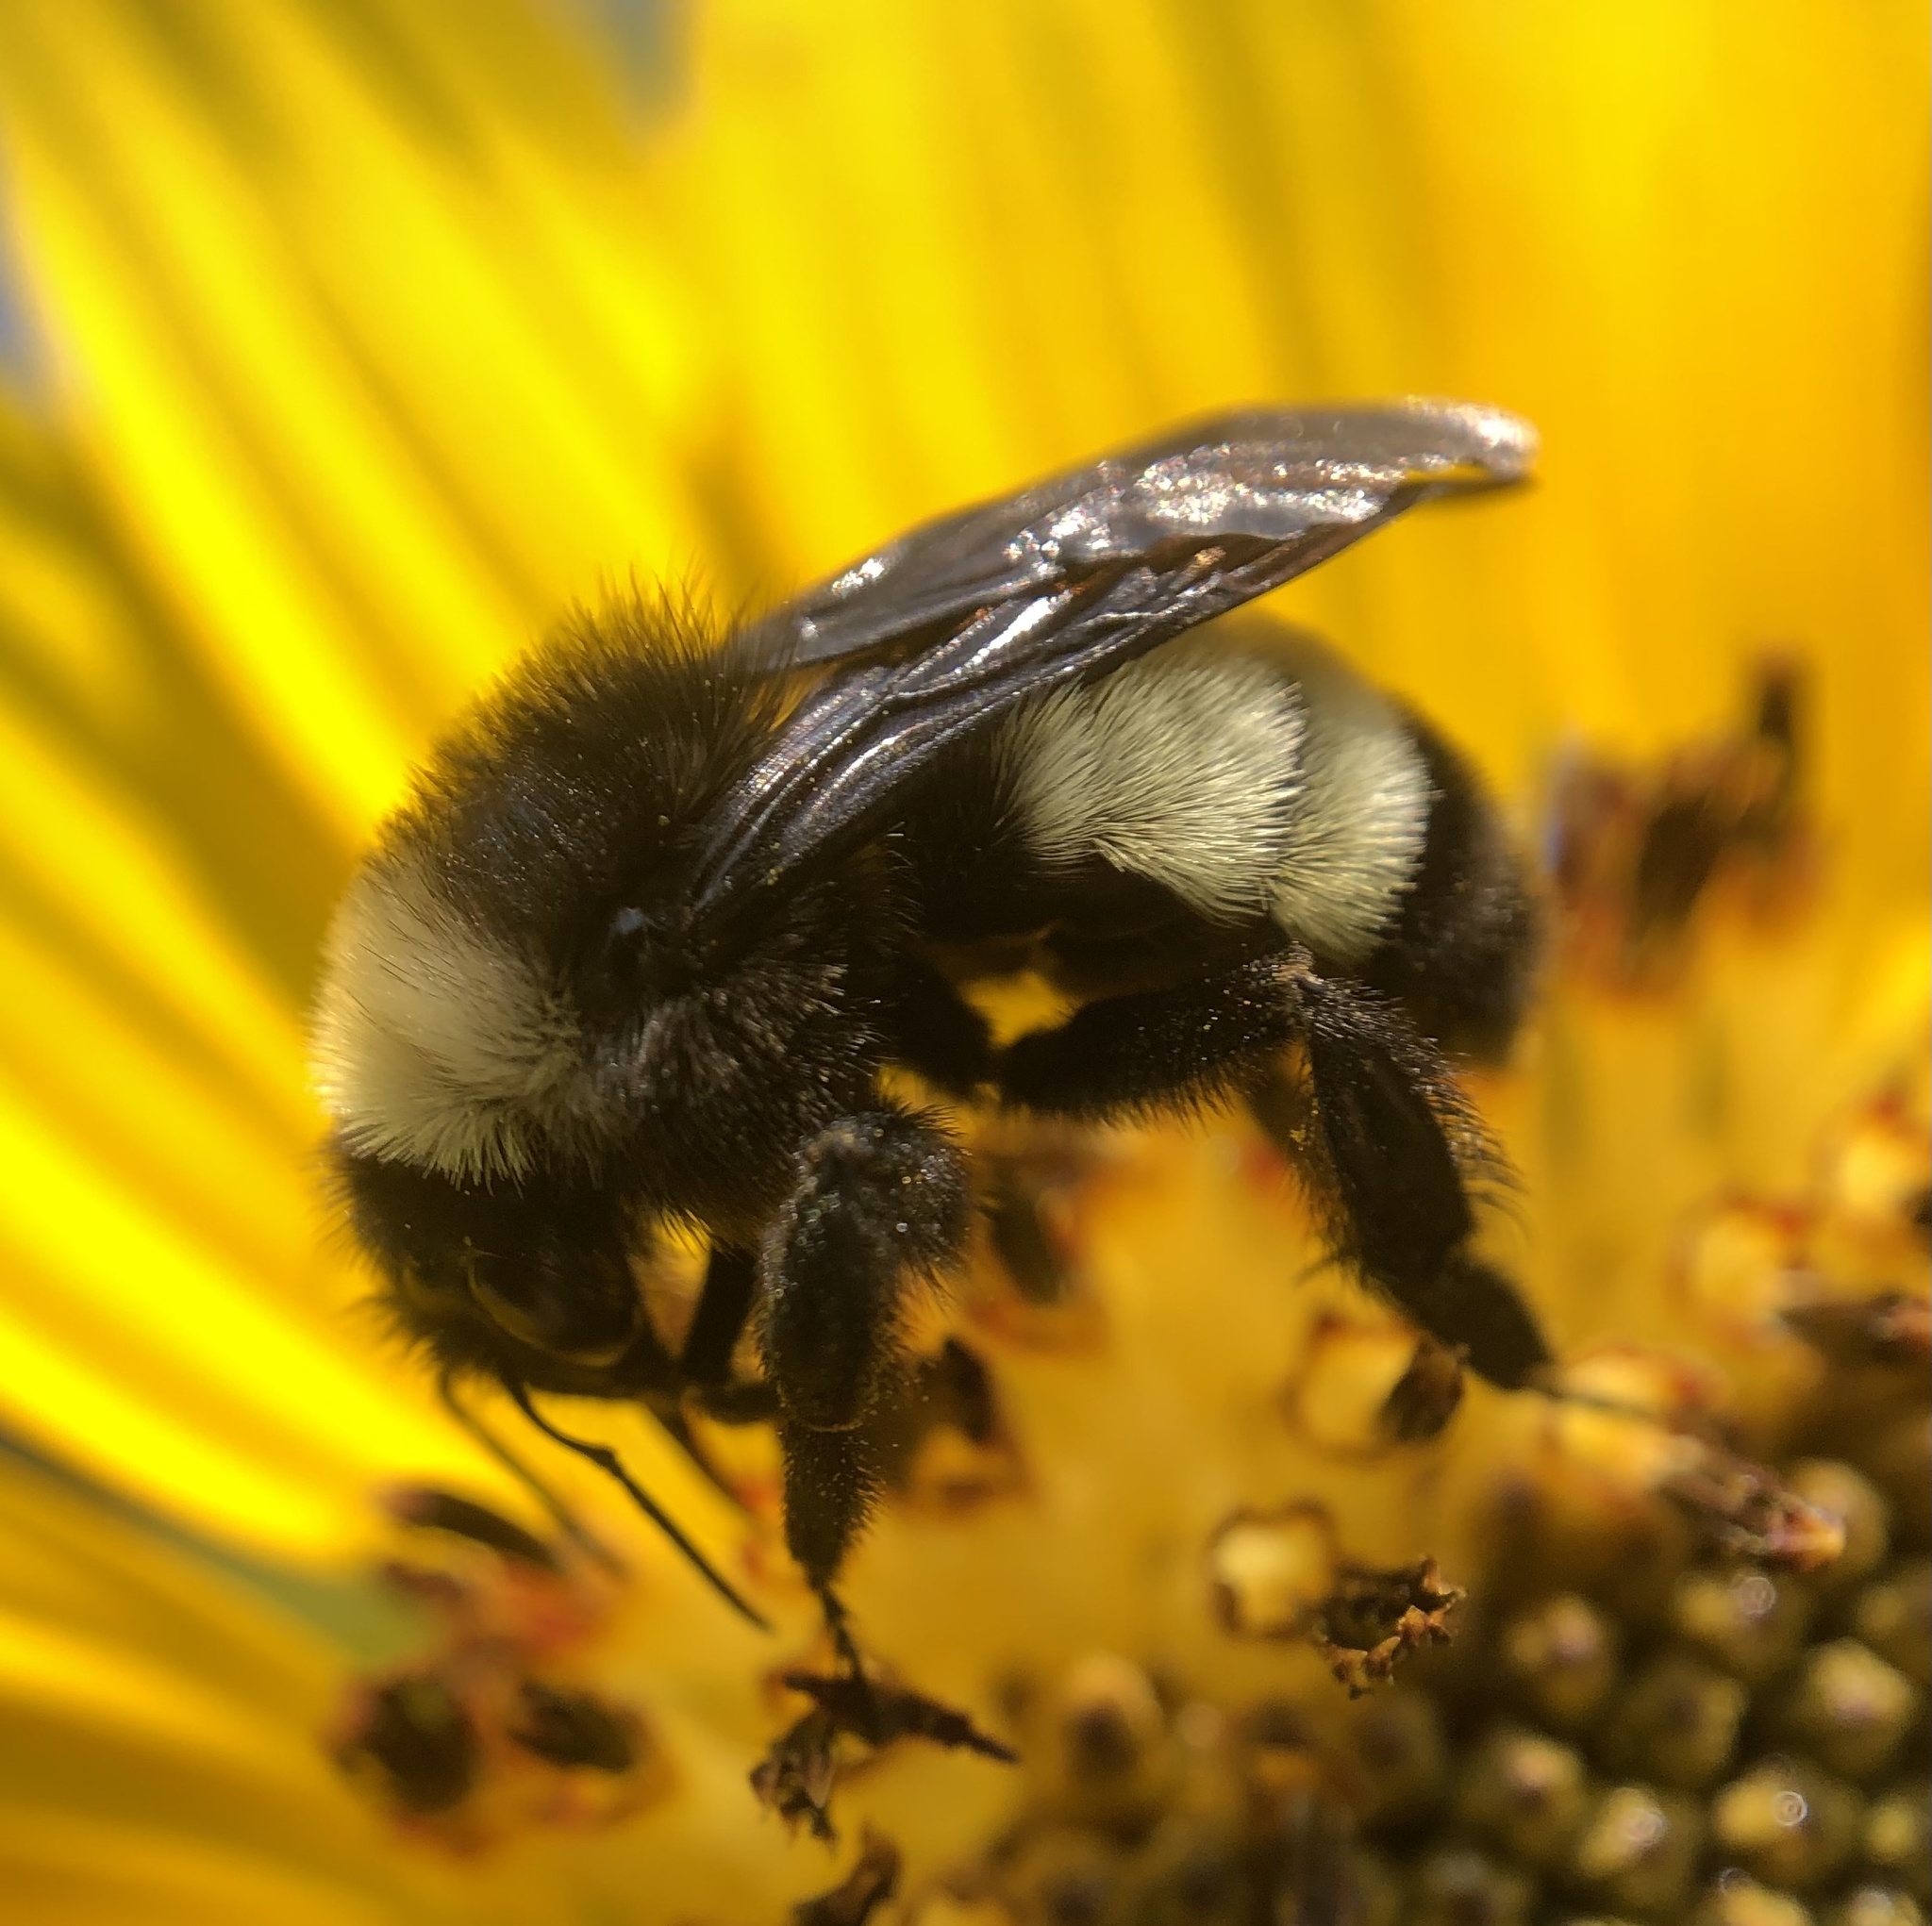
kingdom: Animalia
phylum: Arthropoda
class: Insecta
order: Hymenoptera
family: Apidae
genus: Bombus
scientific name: Bombus pensylvanicus
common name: Bumble bee
